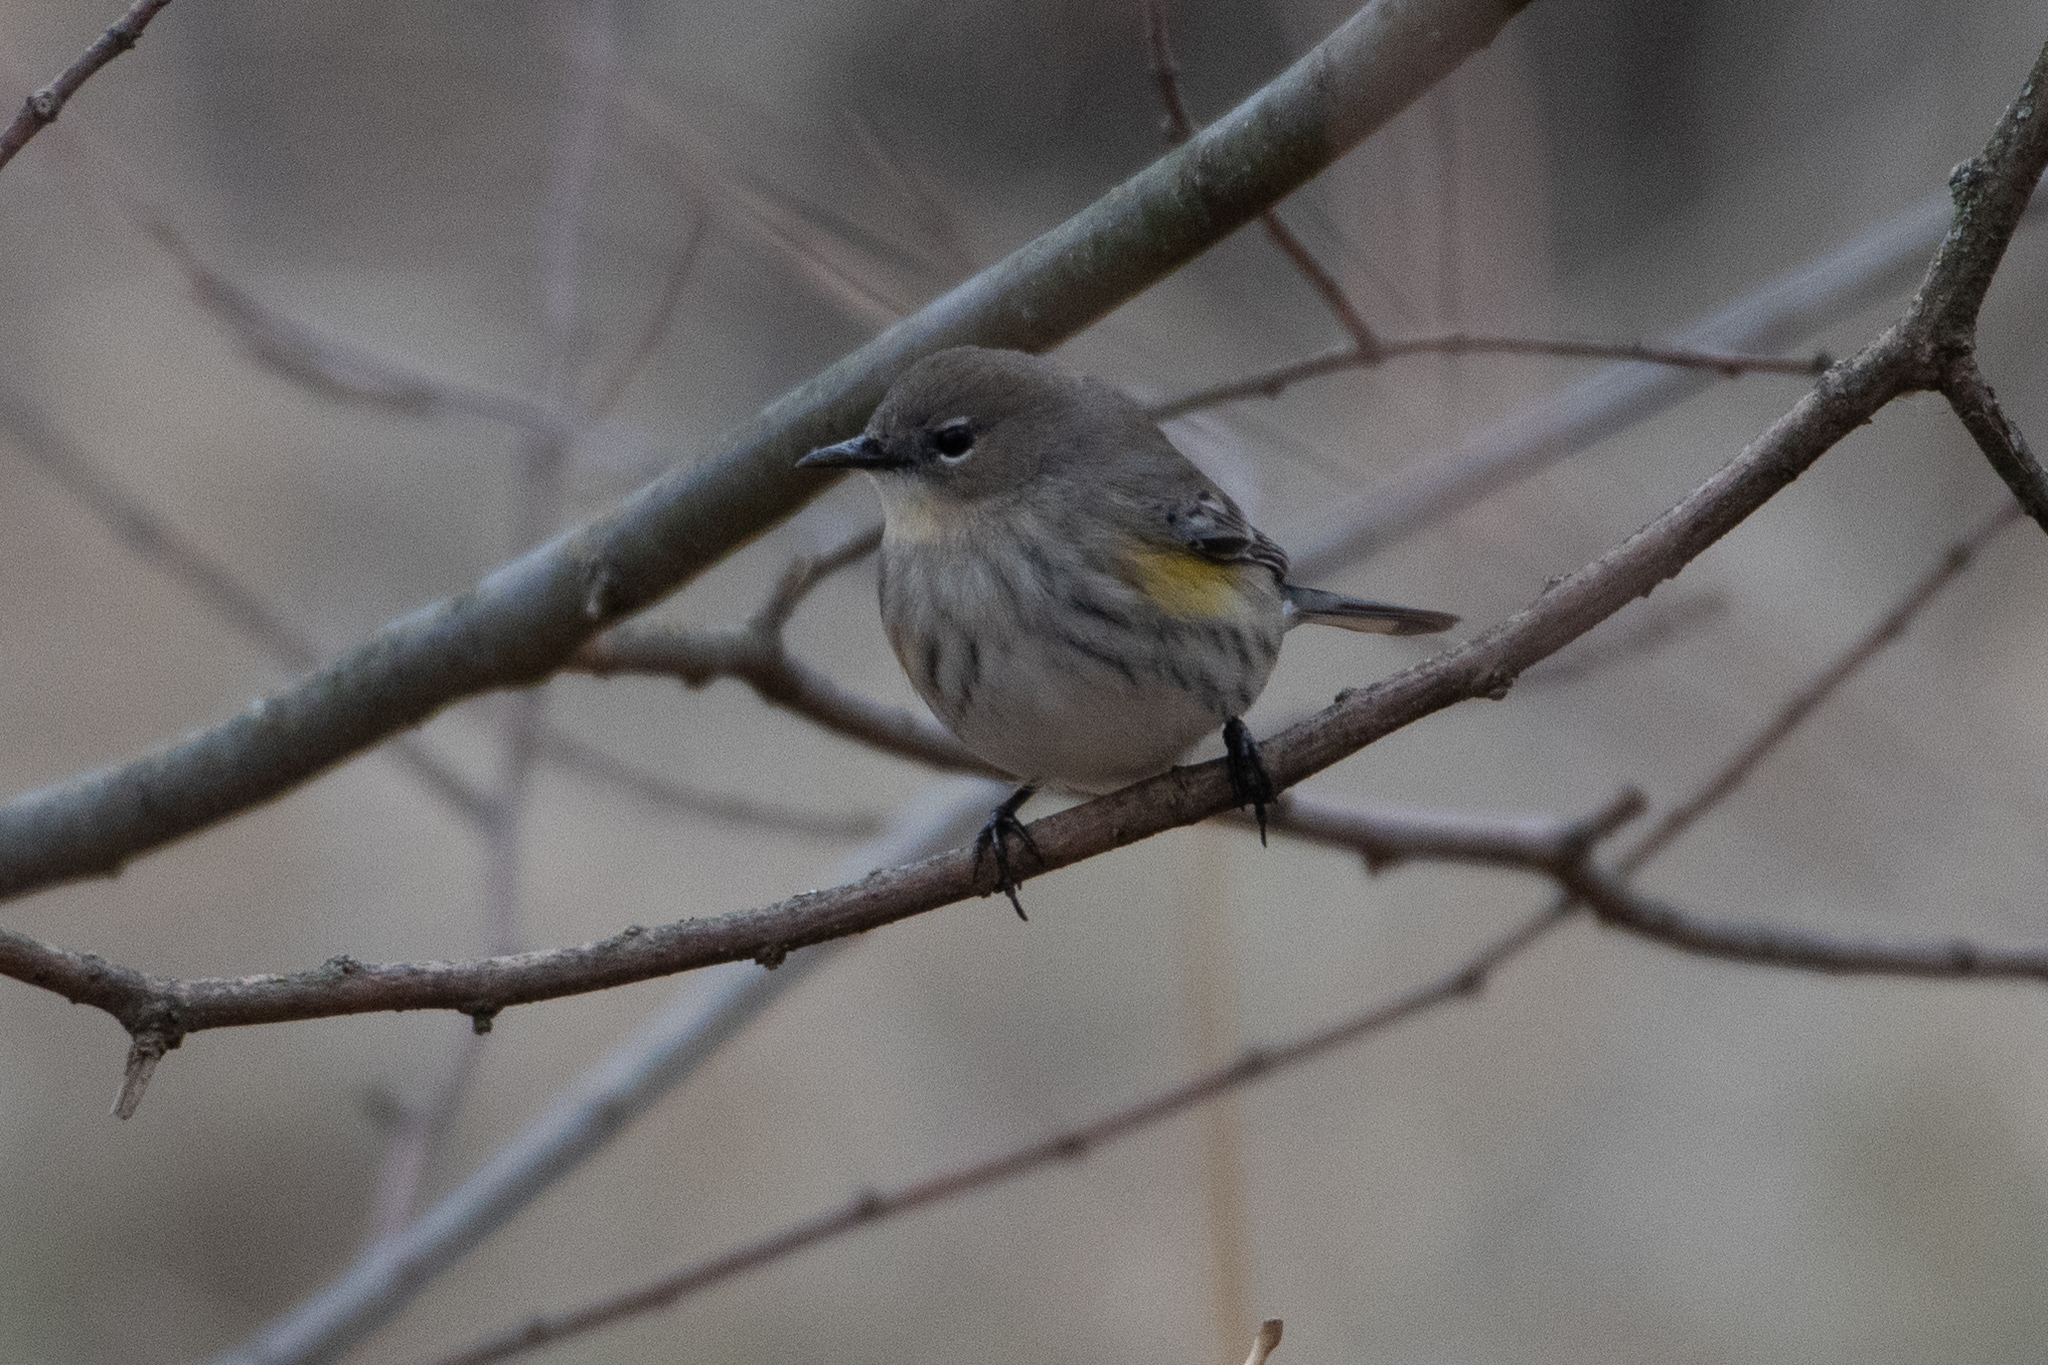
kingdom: Animalia
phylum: Chordata
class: Aves
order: Passeriformes
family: Parulidae
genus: Setophaga
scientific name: Setophaga coronata
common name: Myrtle warbler
